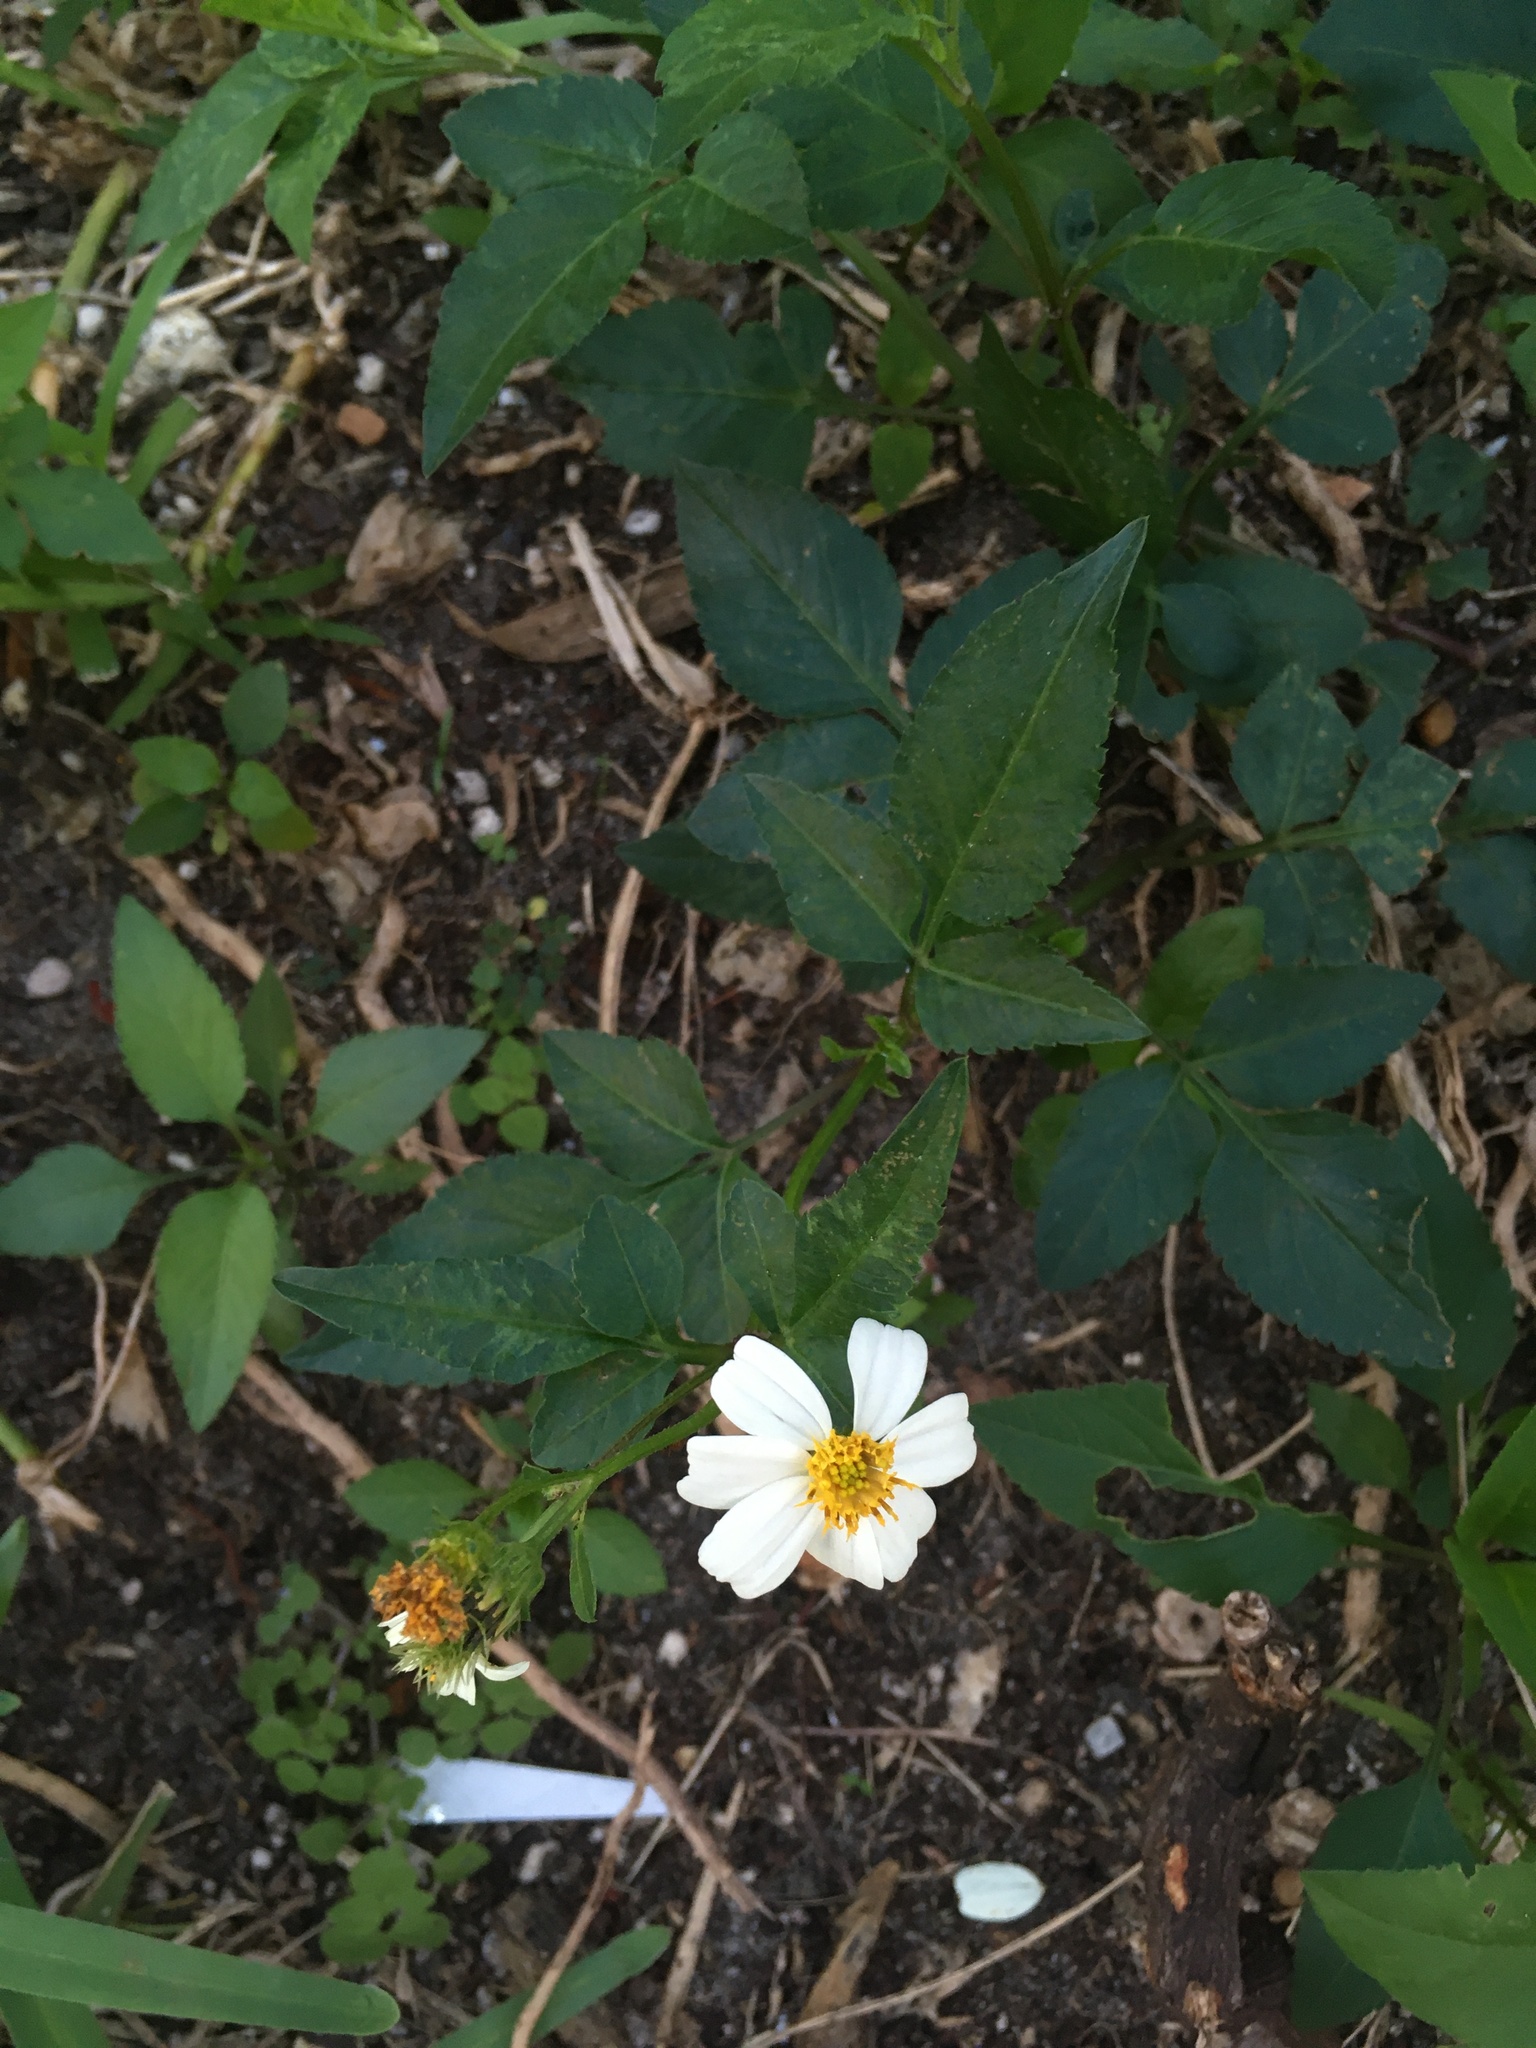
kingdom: Plantae
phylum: Tracheophyta
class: Magnoliopsida
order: Asterales
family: Asteraceae
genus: Bidens
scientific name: Bidens alba
